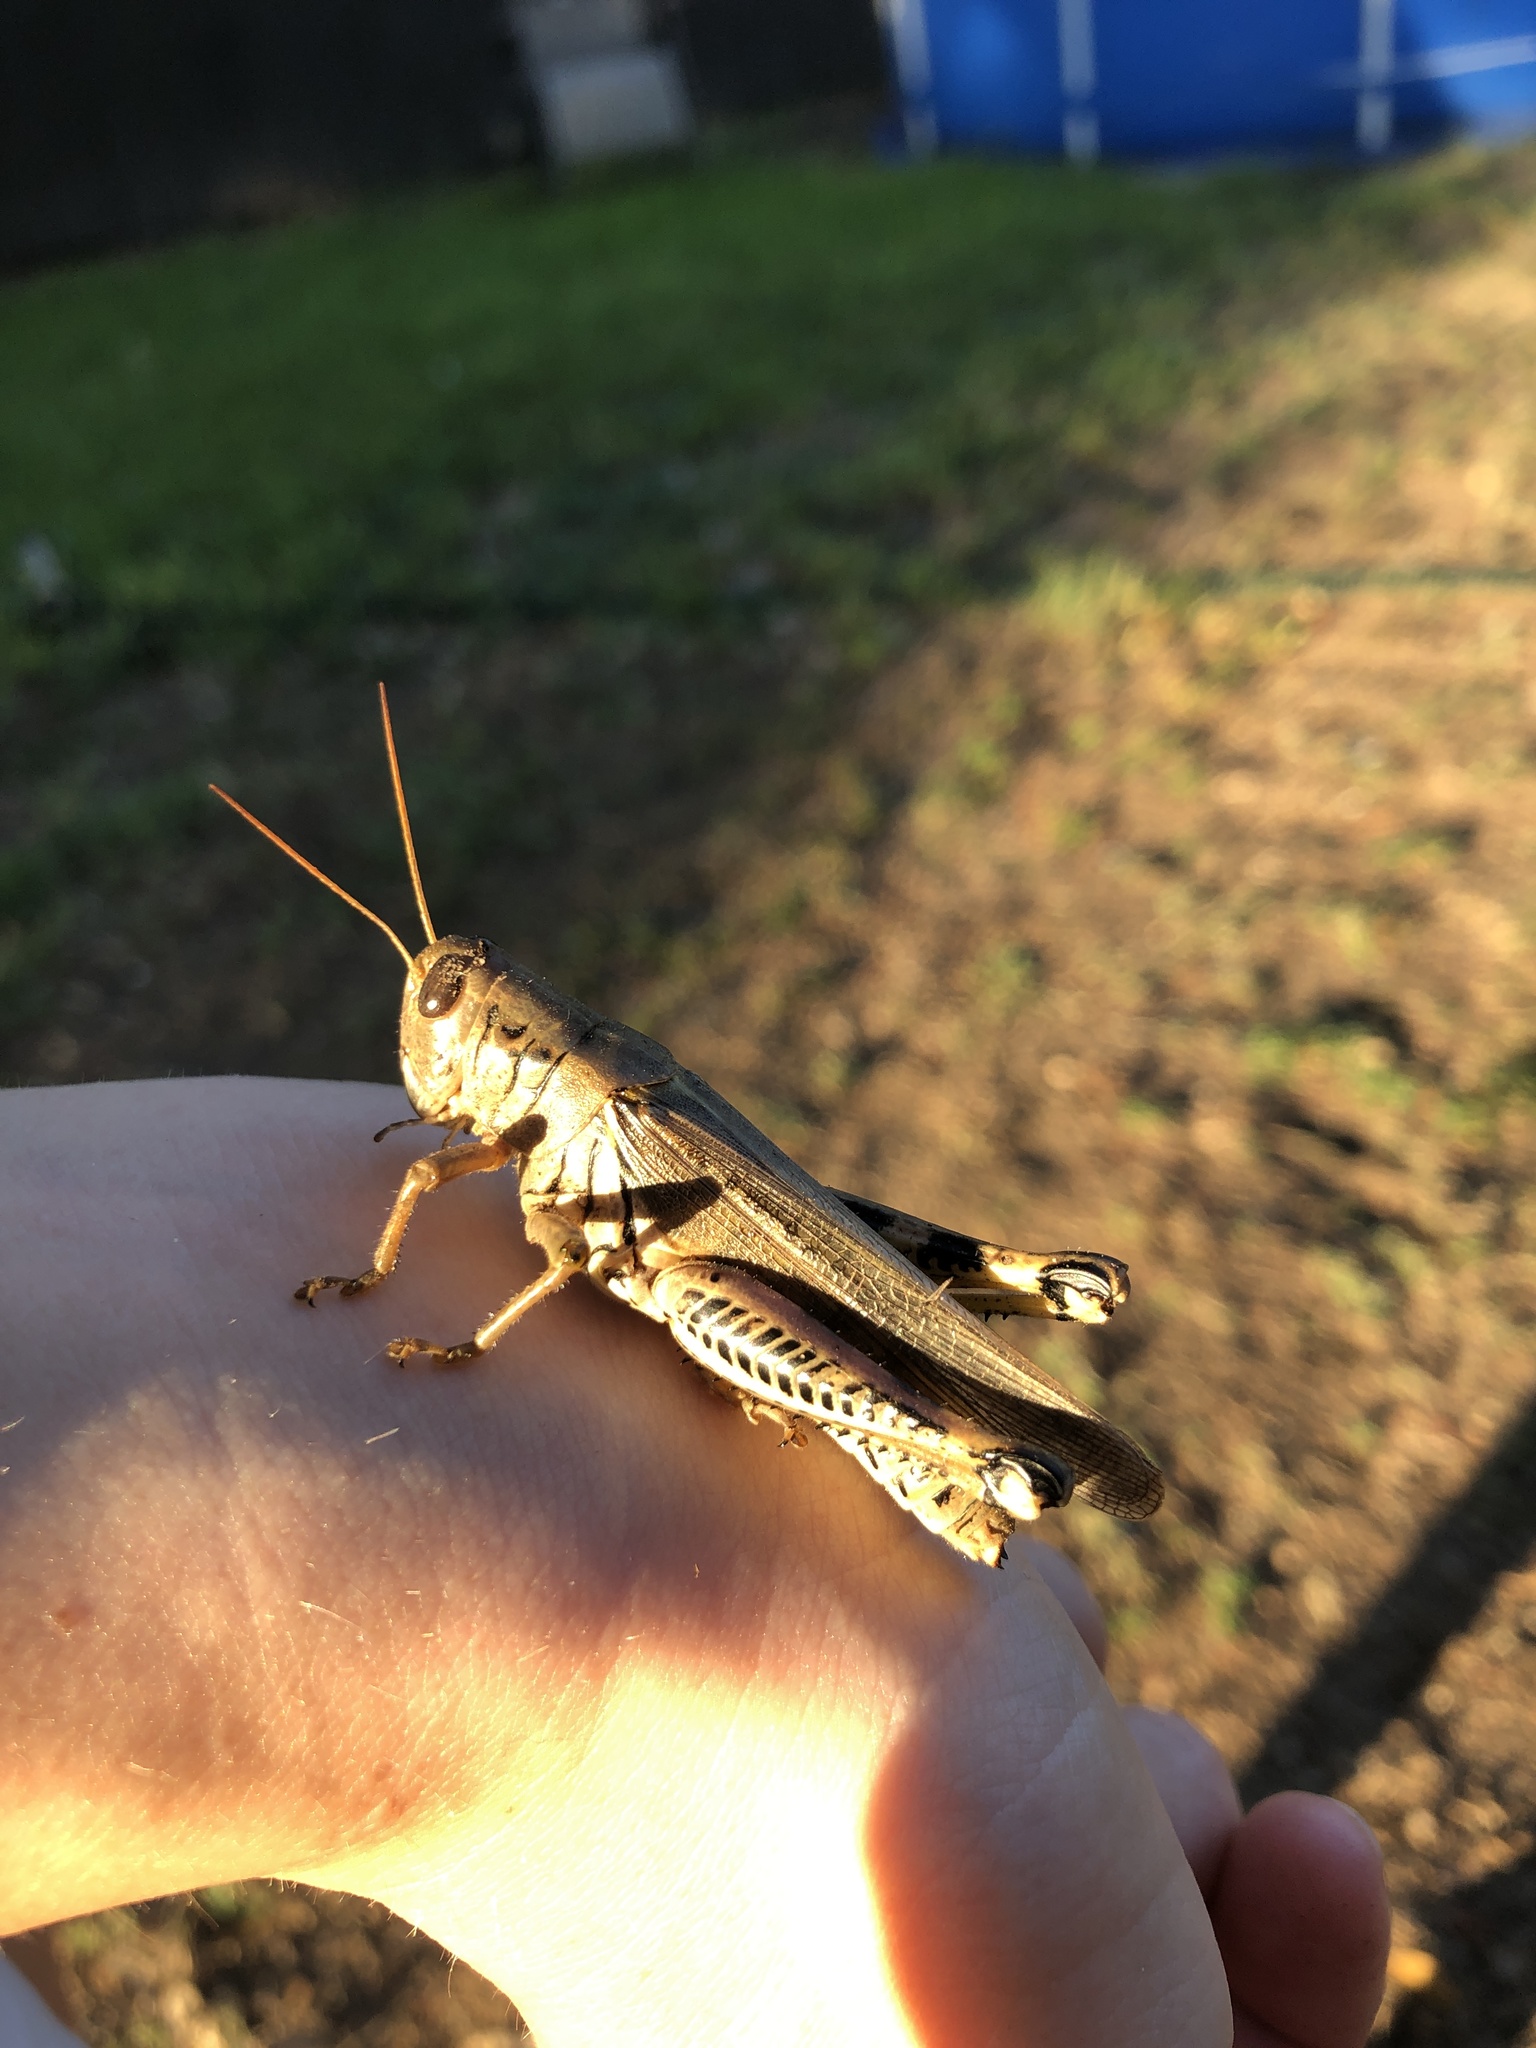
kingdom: Animalia
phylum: Arthropoda
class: Insecta
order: Orthoptera
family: Acrididae
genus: Melanoplus
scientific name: Melanoplus differentialis
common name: Differential grasshopper
